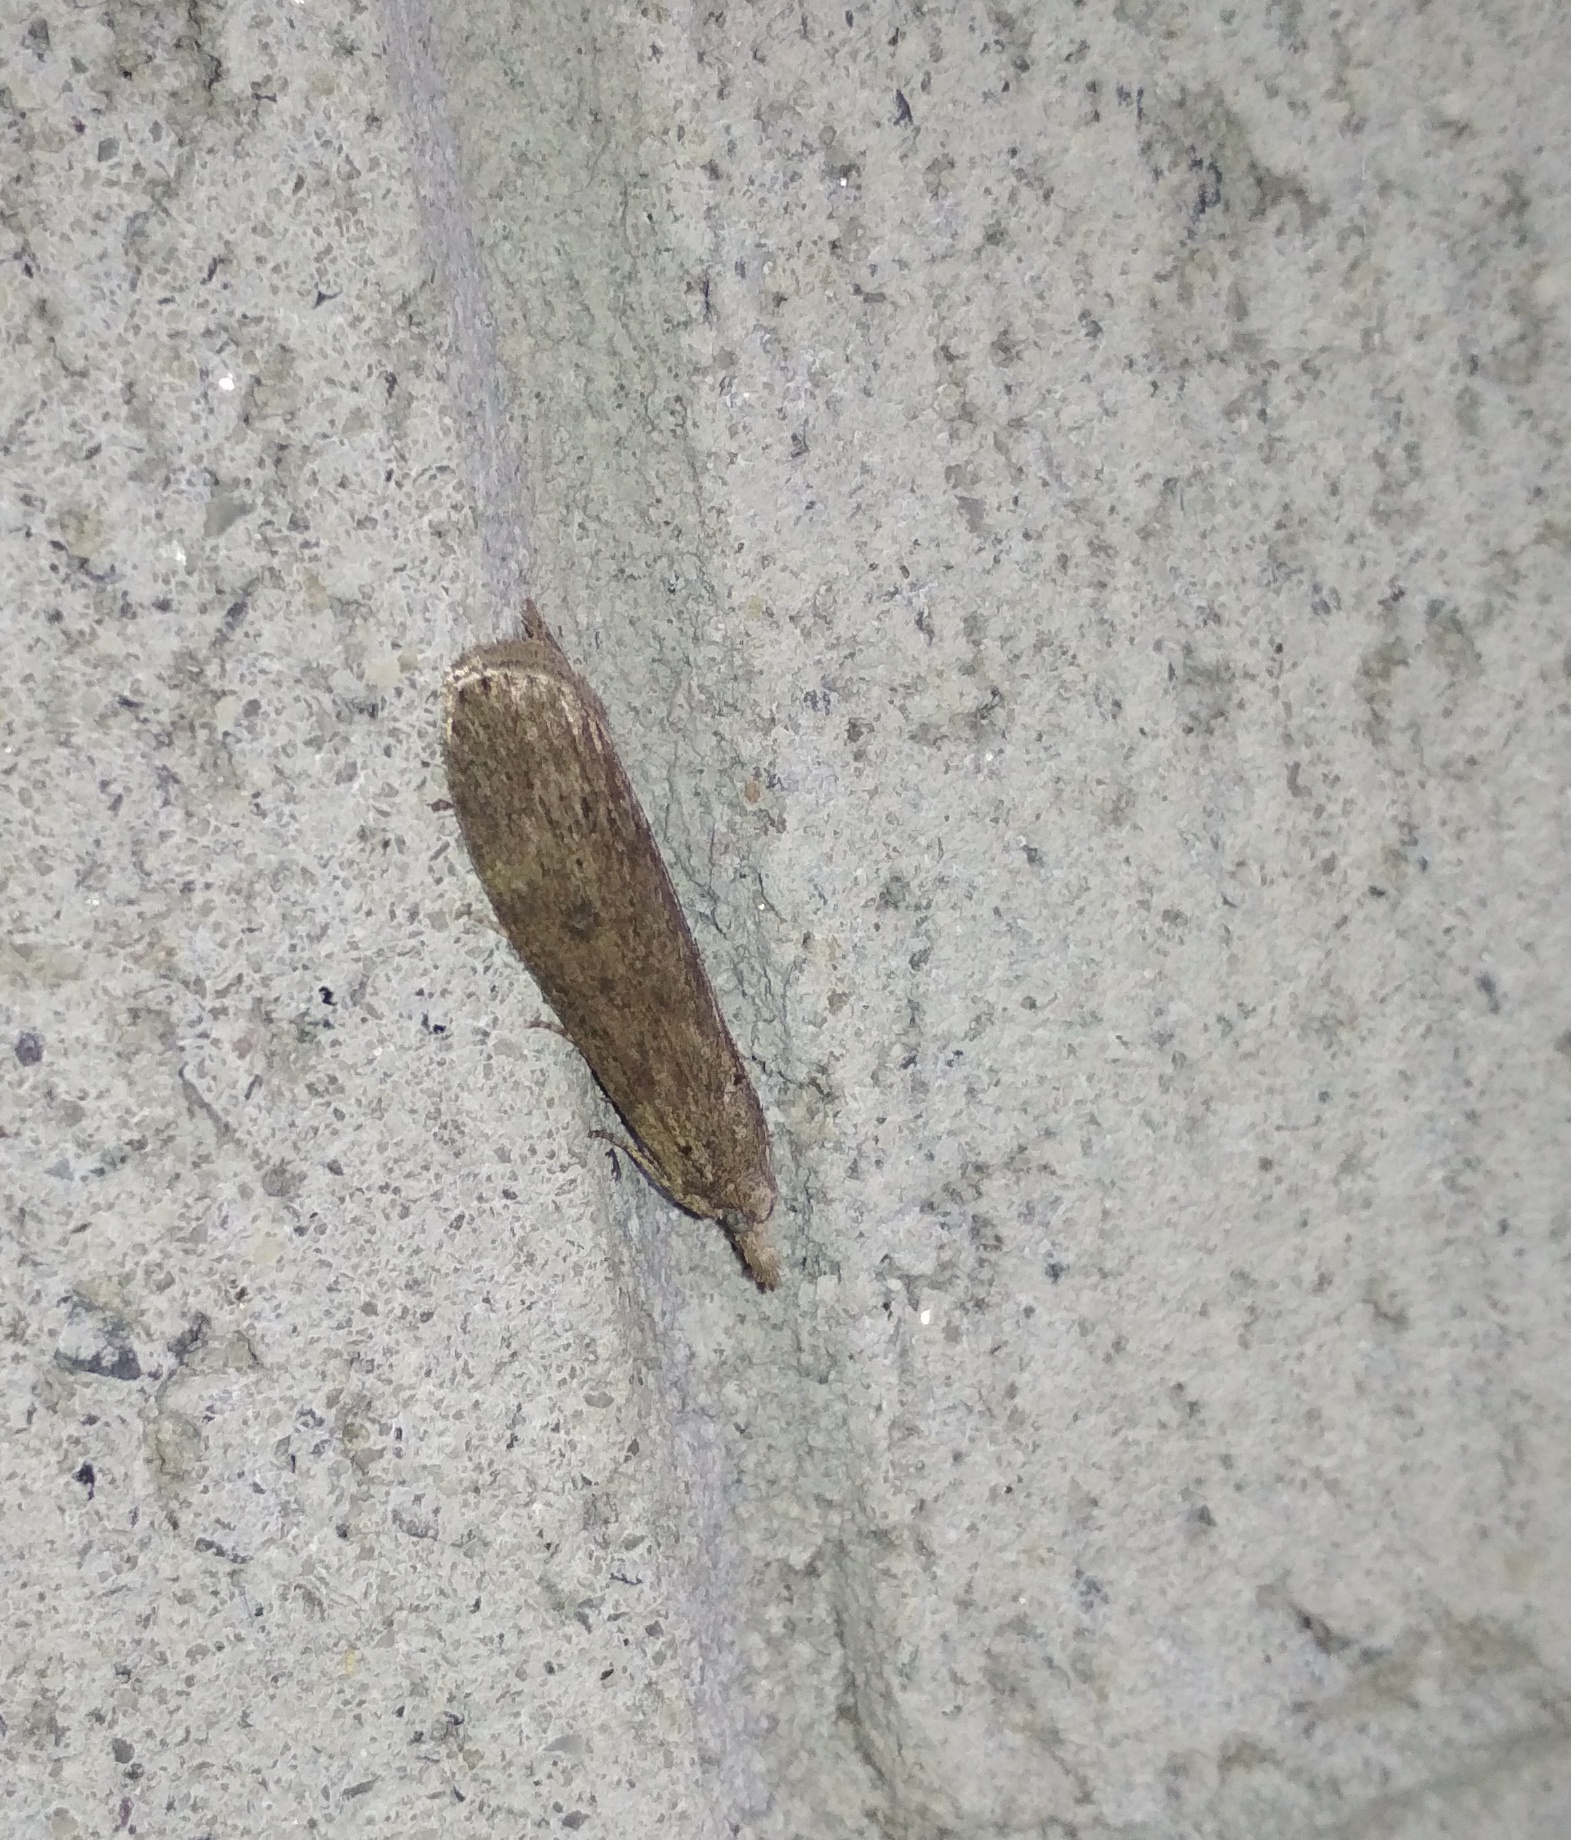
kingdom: Animalia
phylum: Arthropoda
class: Insecta
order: Lepidoptera
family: Pyralidae
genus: Lamoria
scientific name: Lamoria anella
